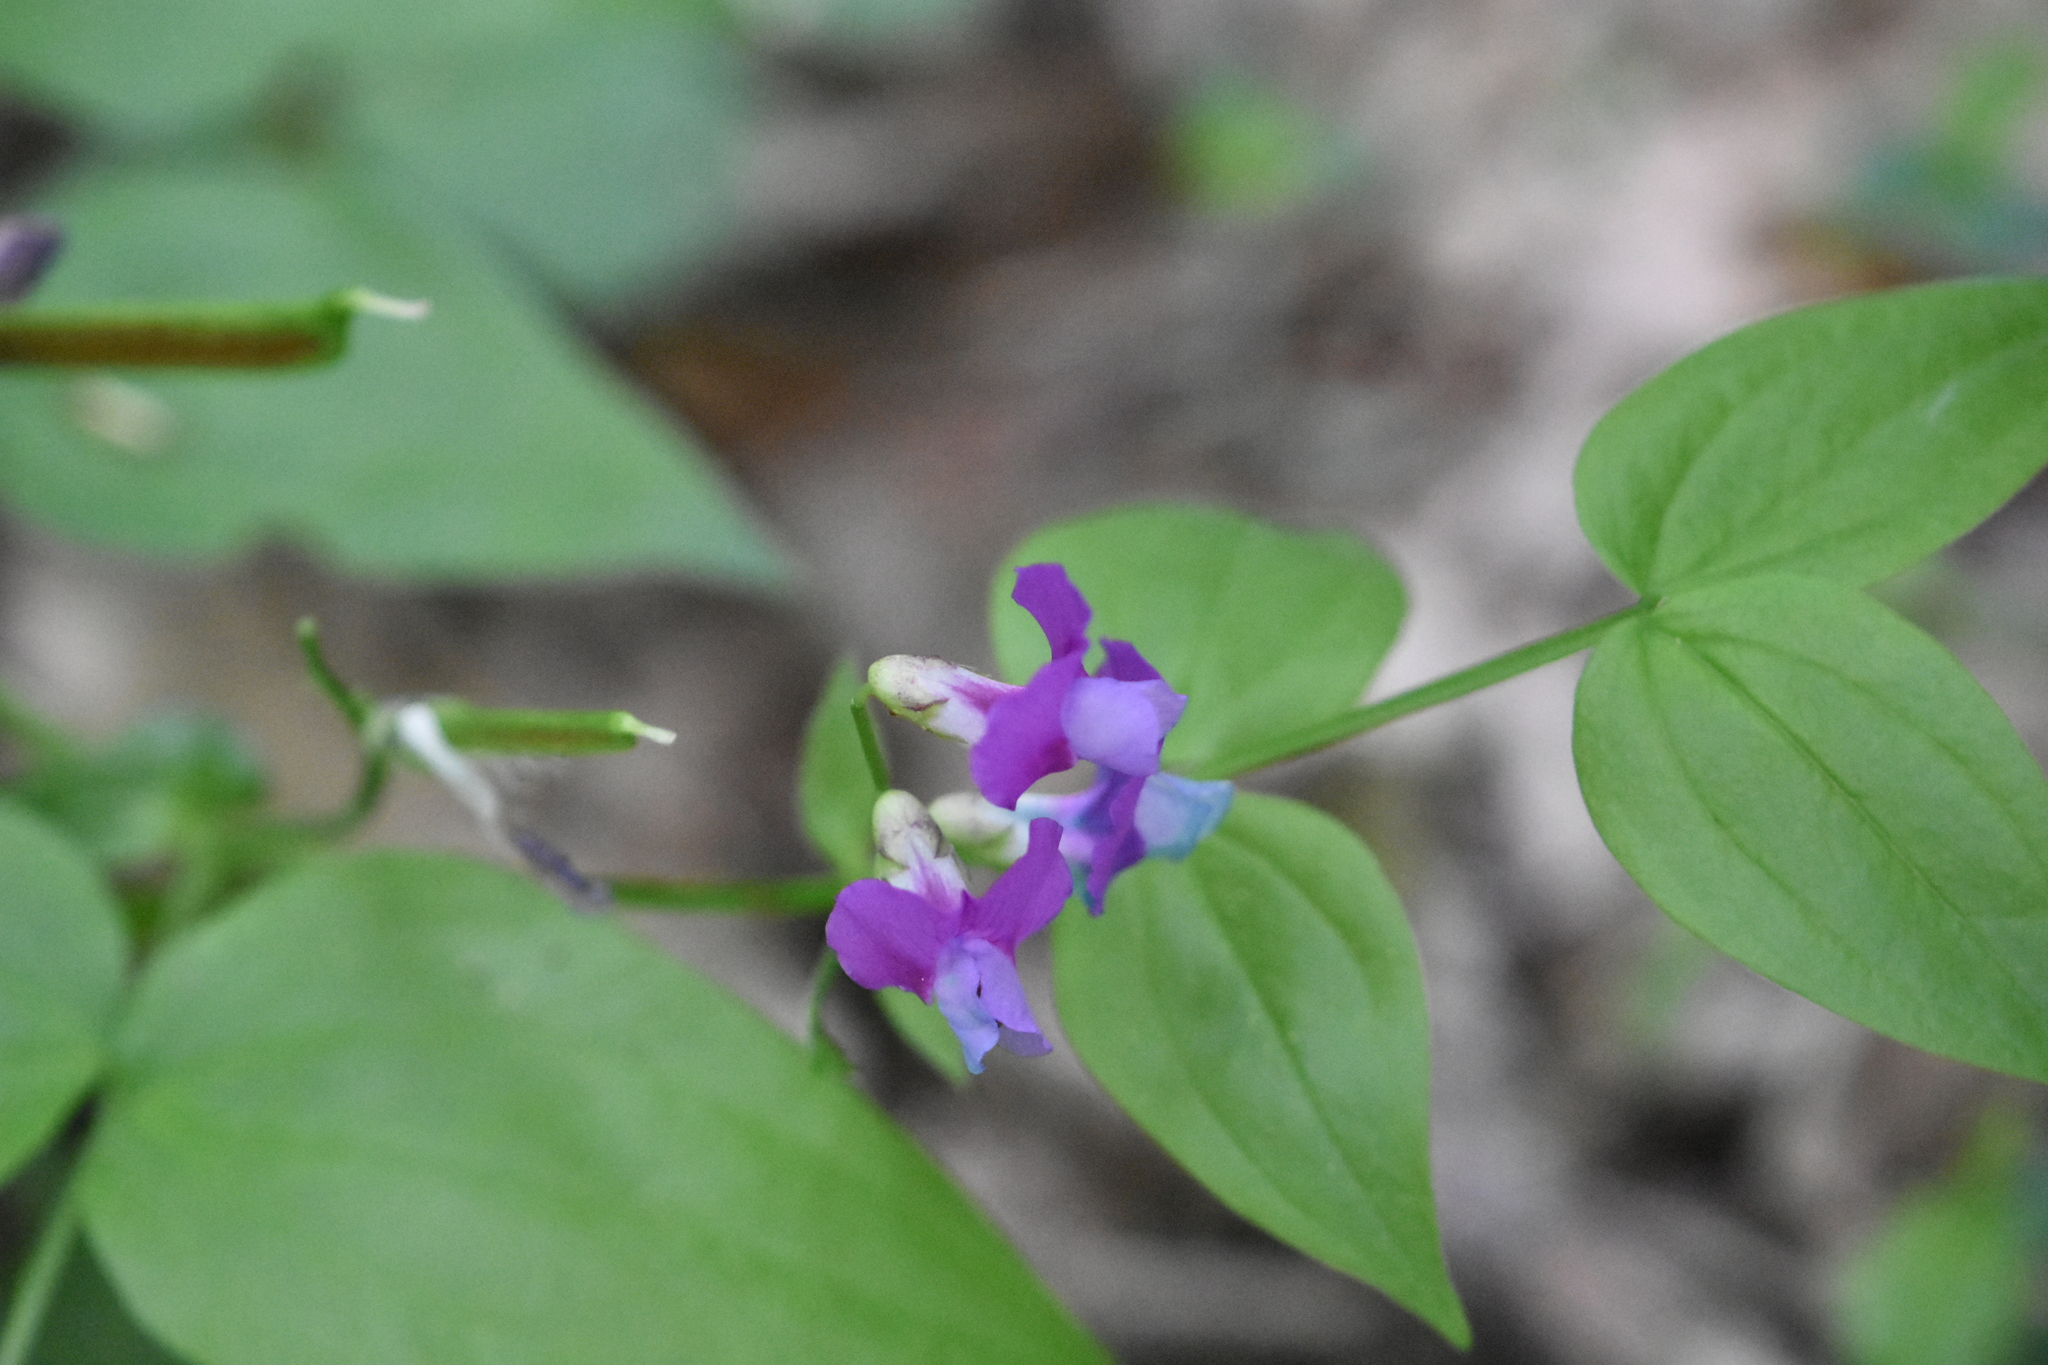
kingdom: Plantae
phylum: Tracheophyta
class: Magnoliopsida
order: Fabales
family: Fabaceae
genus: Lathyrus
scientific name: Lathyrus vernus
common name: Spring pea
